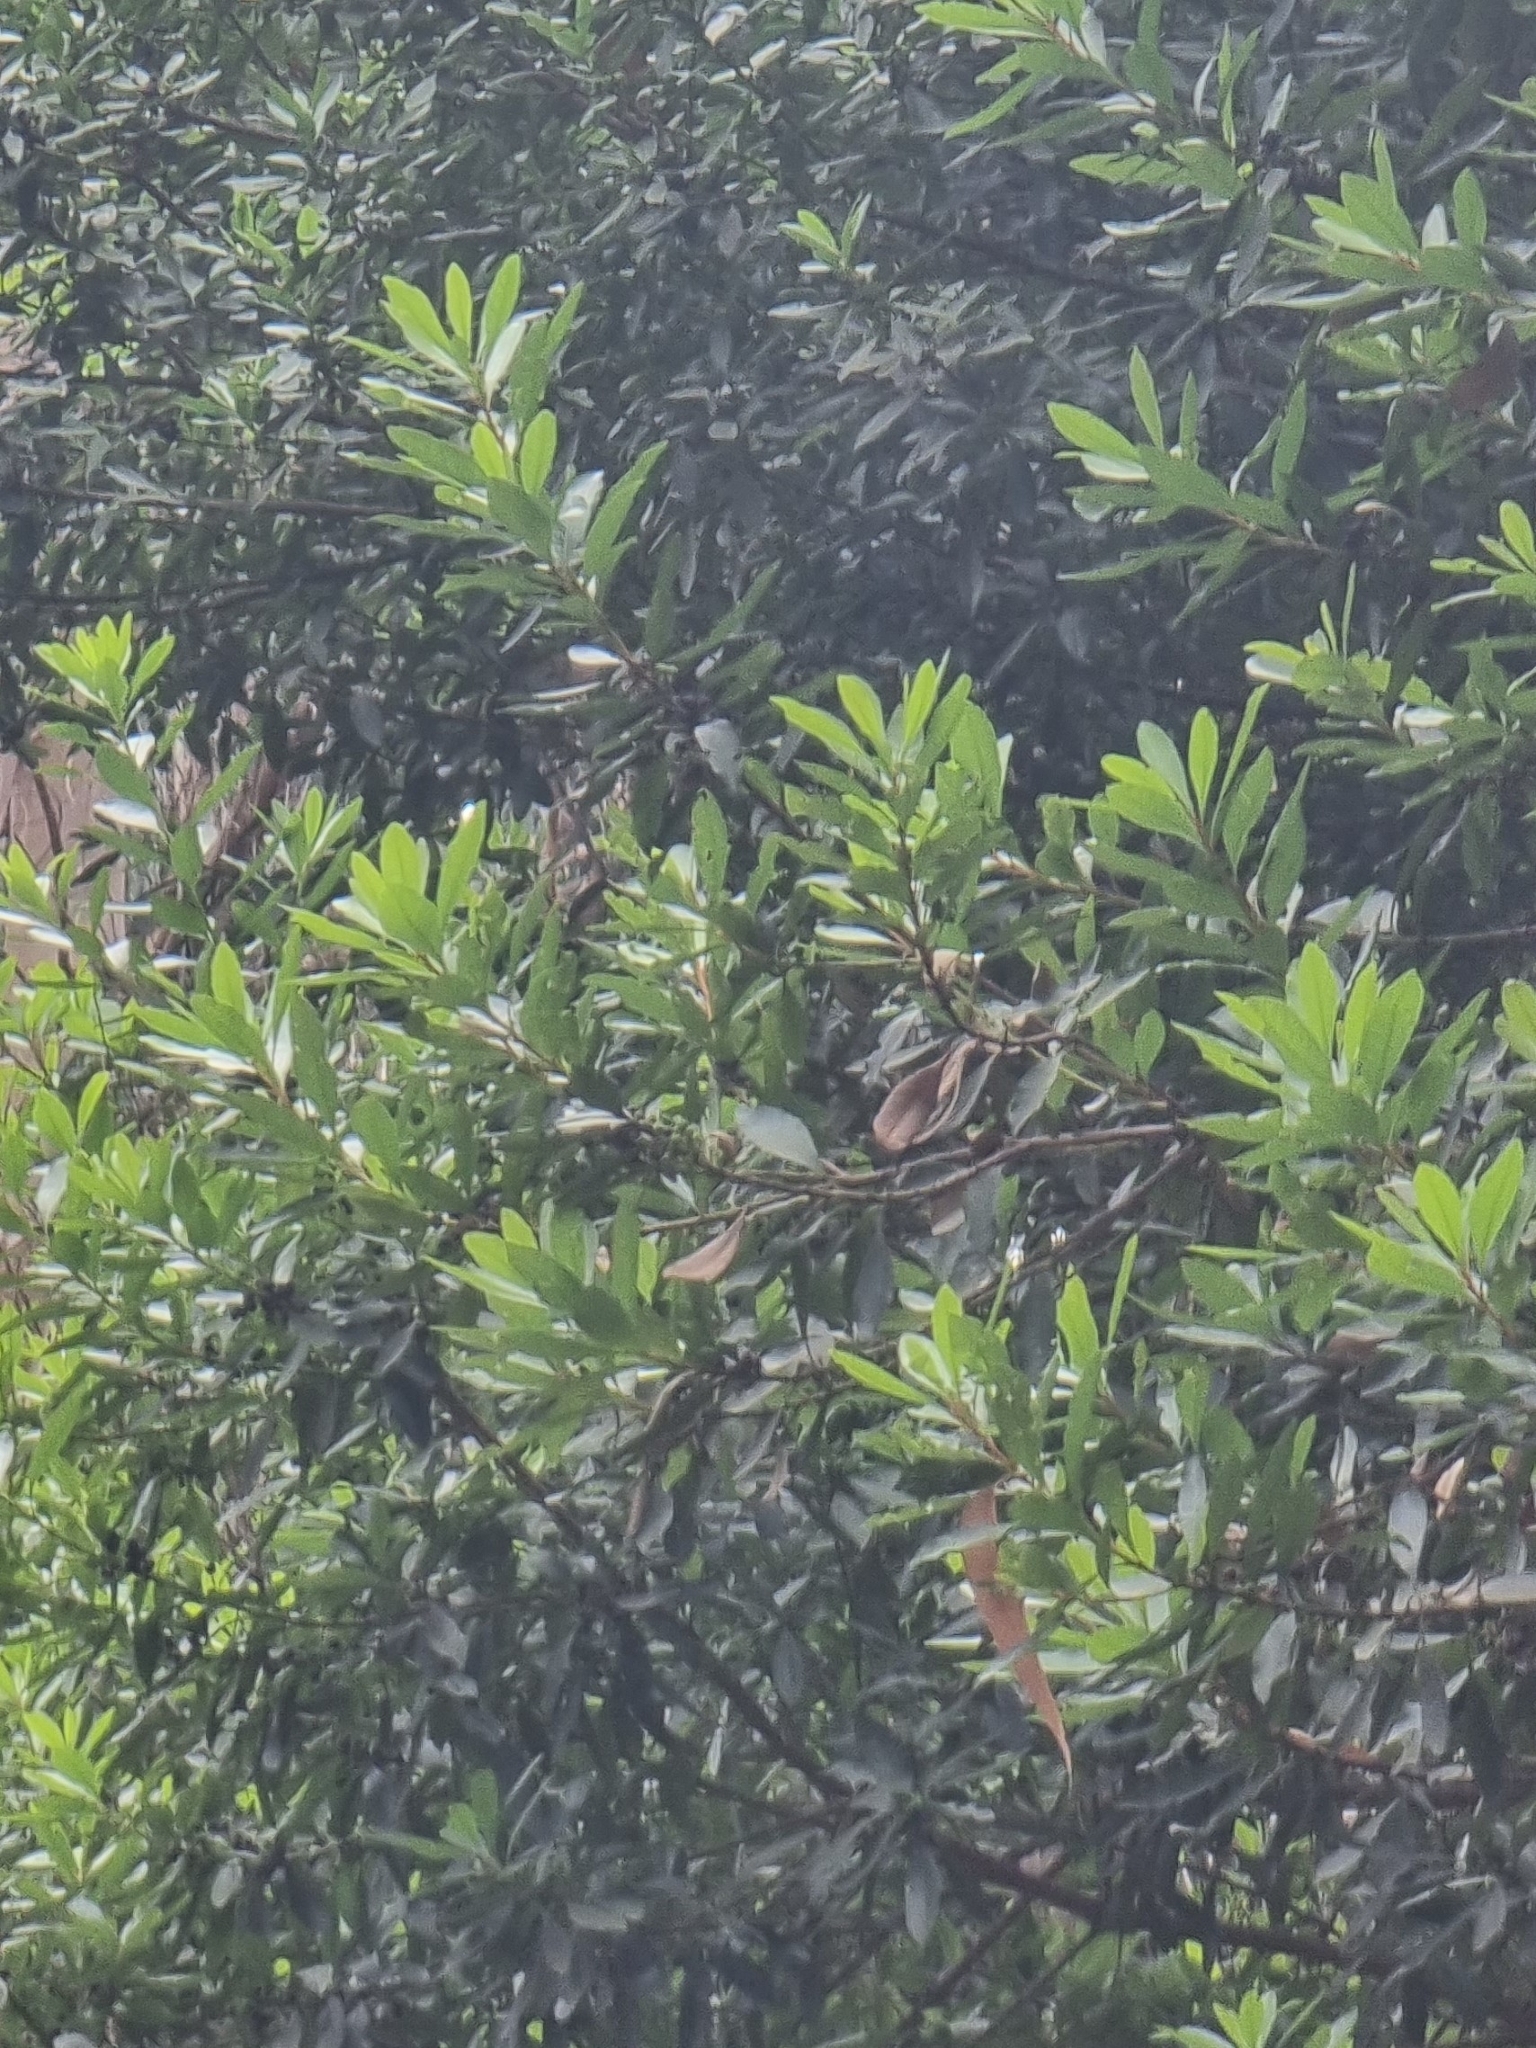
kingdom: Plantae
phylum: Tracheophyta
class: Magnoliopsida
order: Fagales
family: Myricaceae
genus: Morella
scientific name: Morella faya
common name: Firetree
